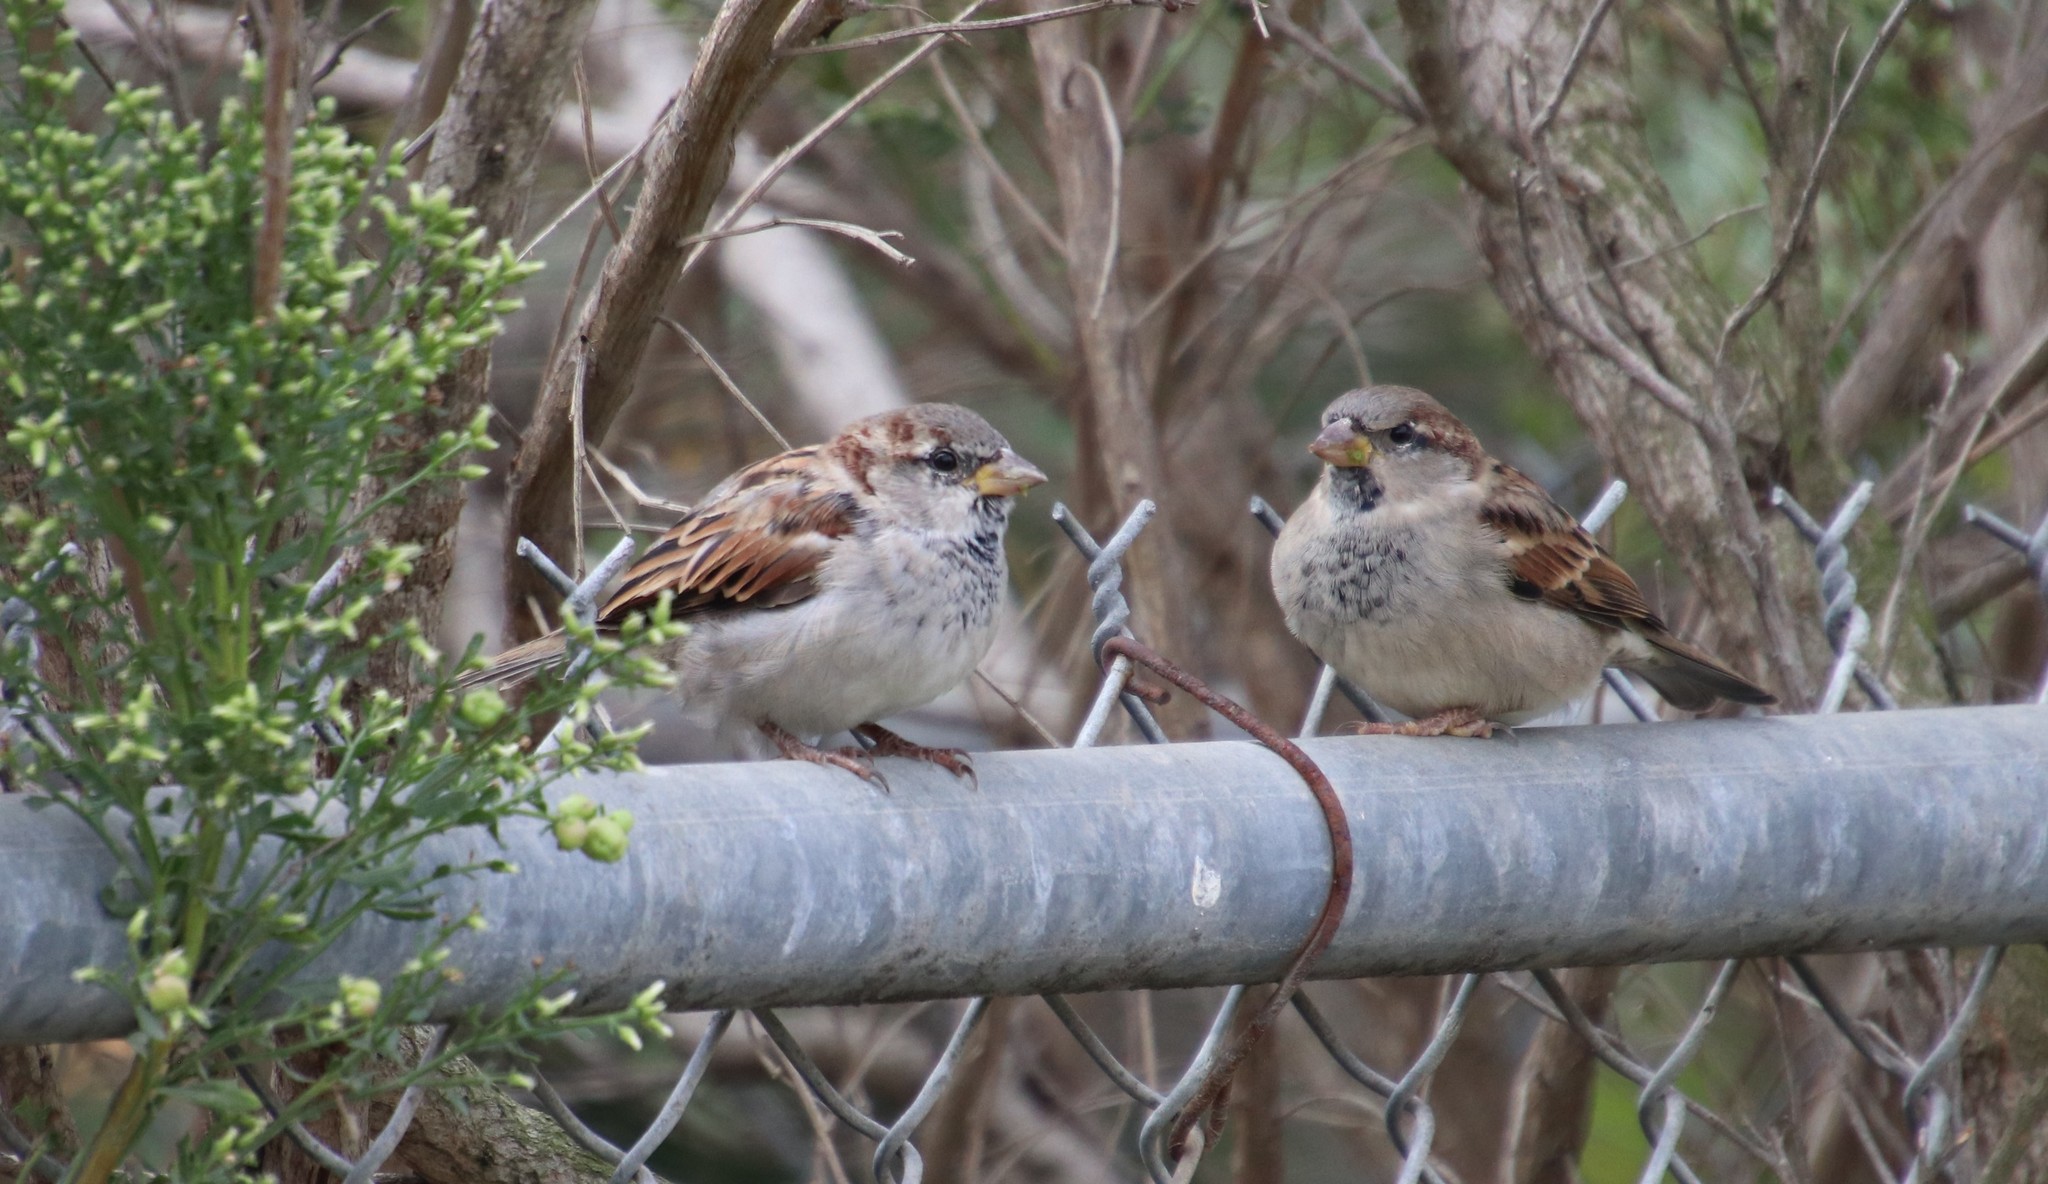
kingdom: Animalia
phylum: Chordata
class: Aves
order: Passeriformes
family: Passeridae
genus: Passer
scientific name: Passer domesticus
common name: House sparrow
